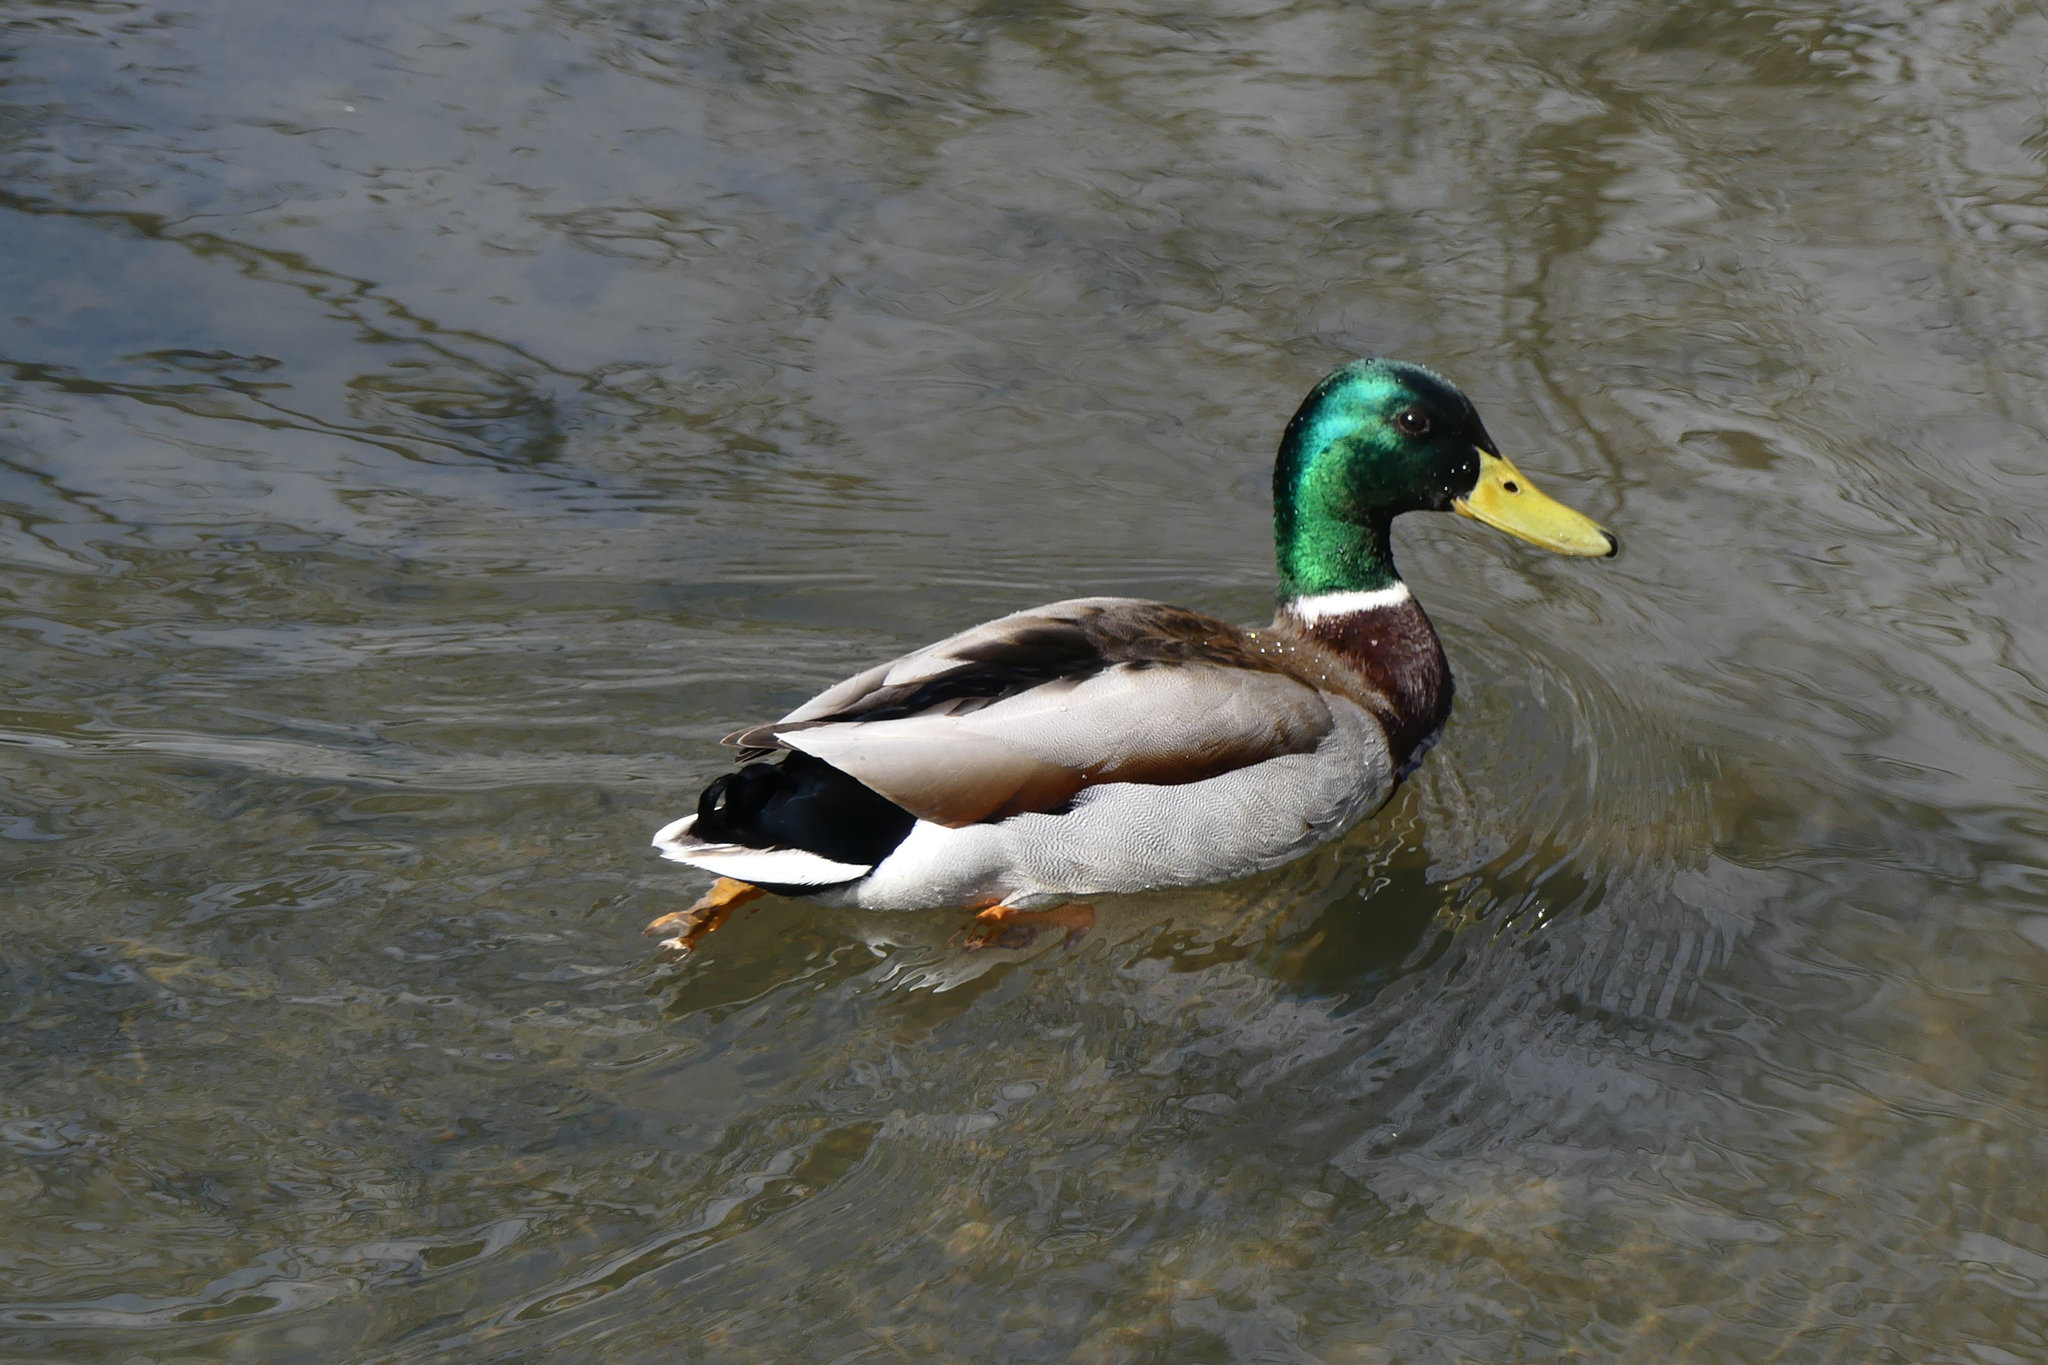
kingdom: Animalia
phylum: Chordata
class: Aves
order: Anseriformes
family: Anatidae
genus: Anas
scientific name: Anas platyrhynchos
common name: Mallard
